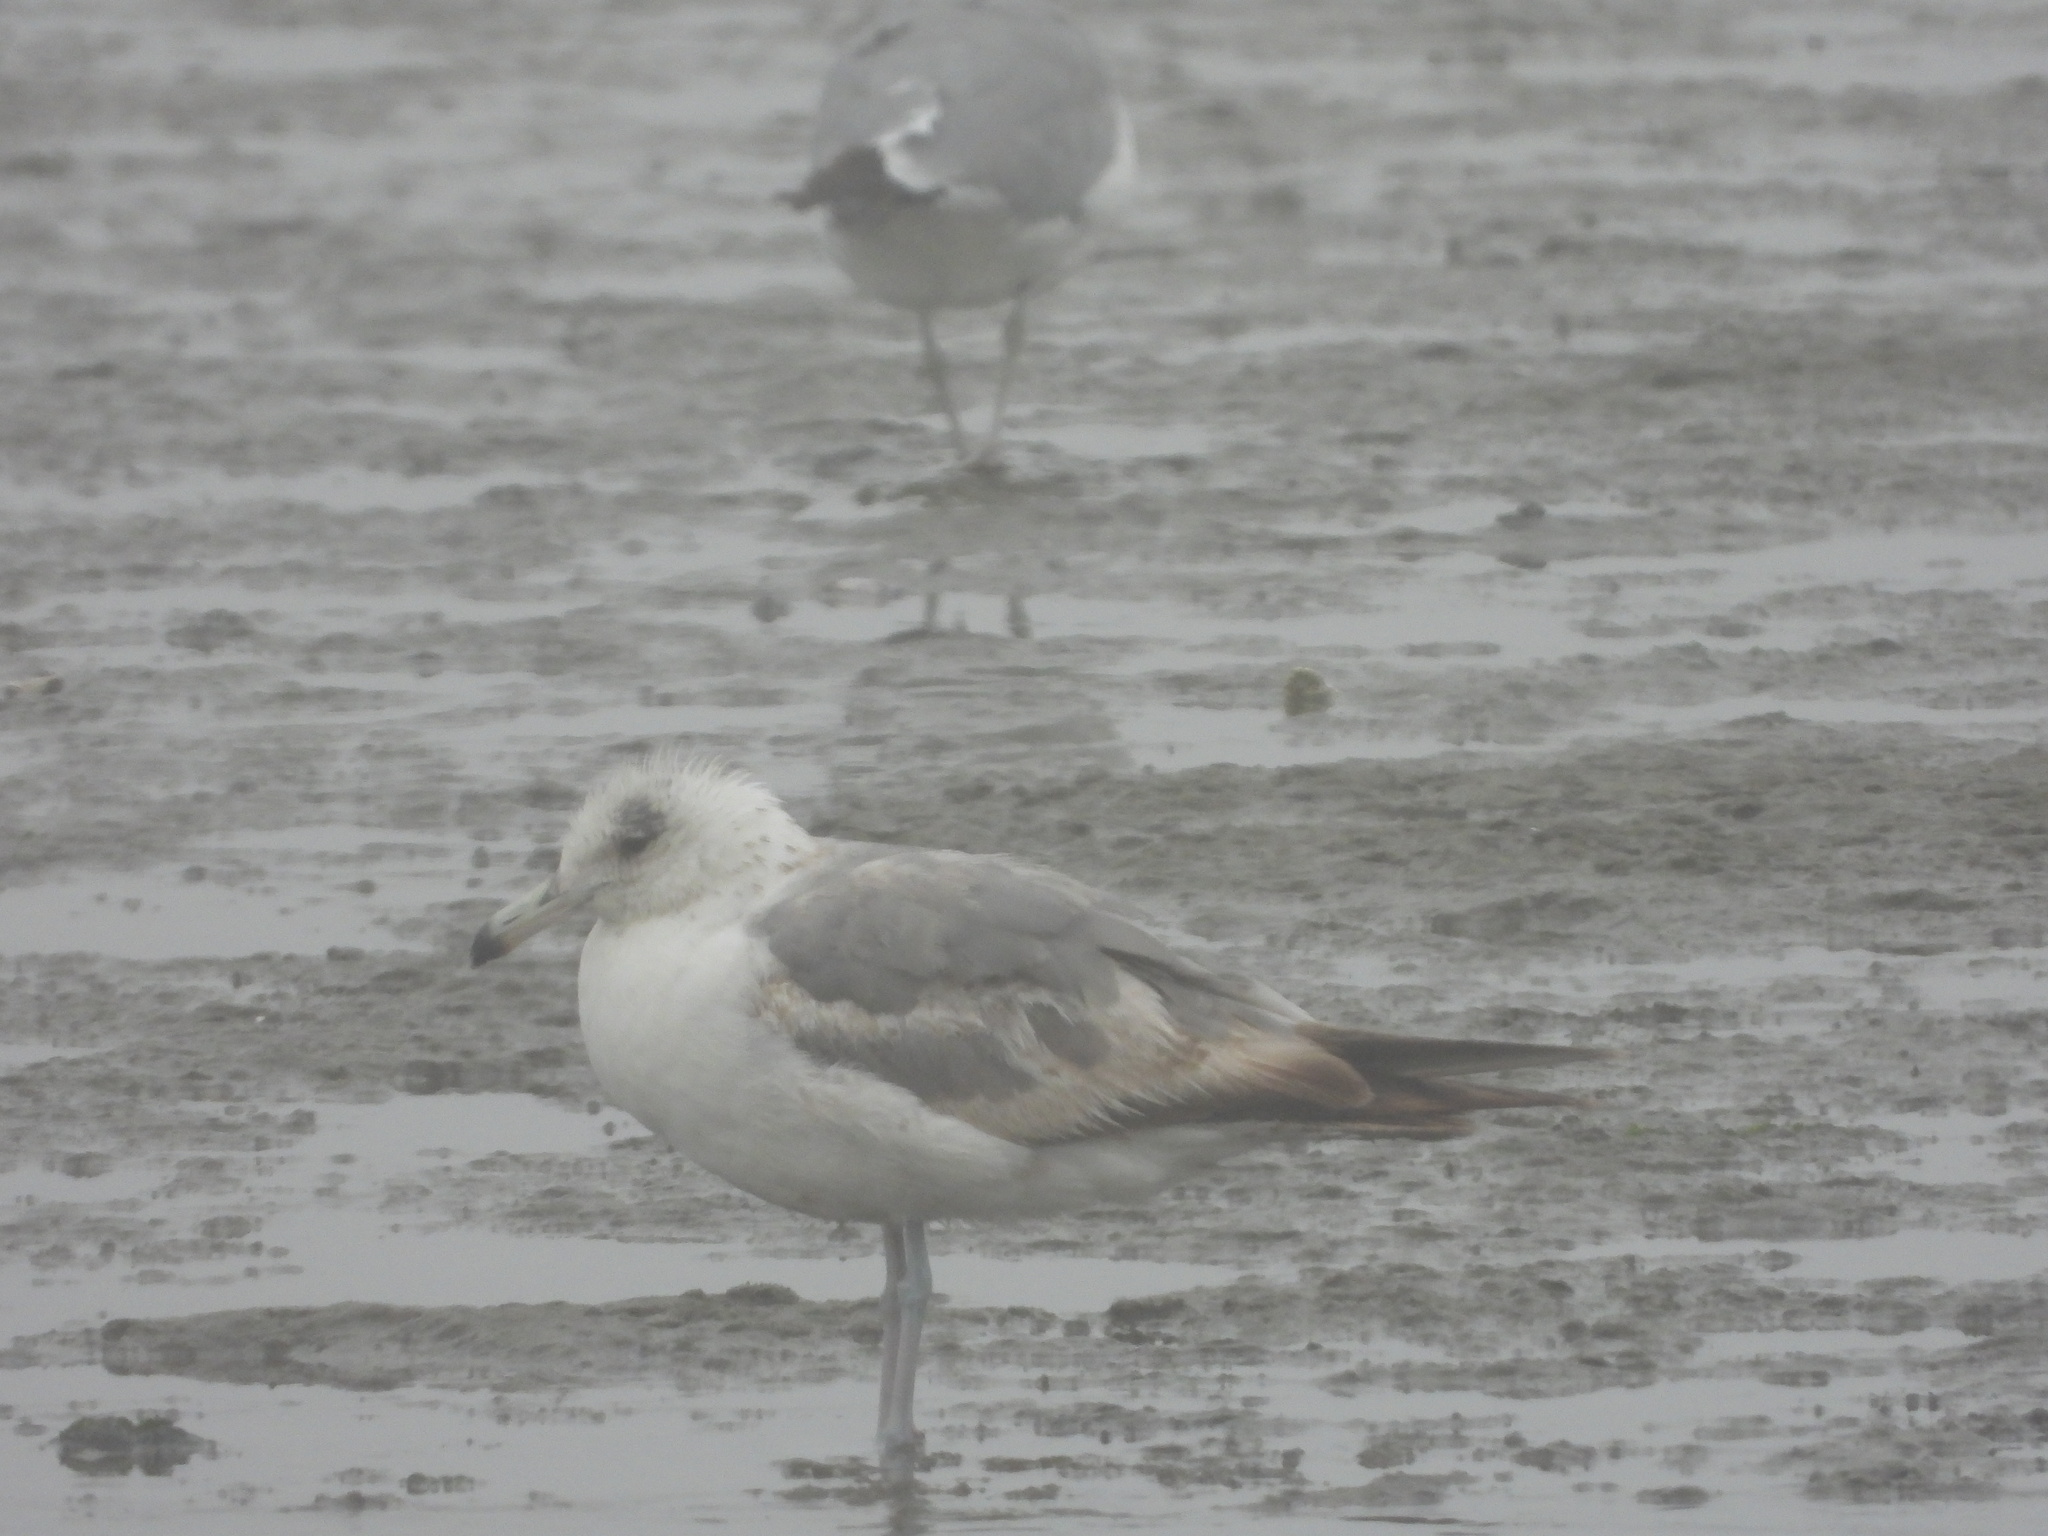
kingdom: Animalia
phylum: Chordata
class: Aves
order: Charadriiformes
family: Laridae
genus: Larus
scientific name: Larus californicus
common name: California gull
